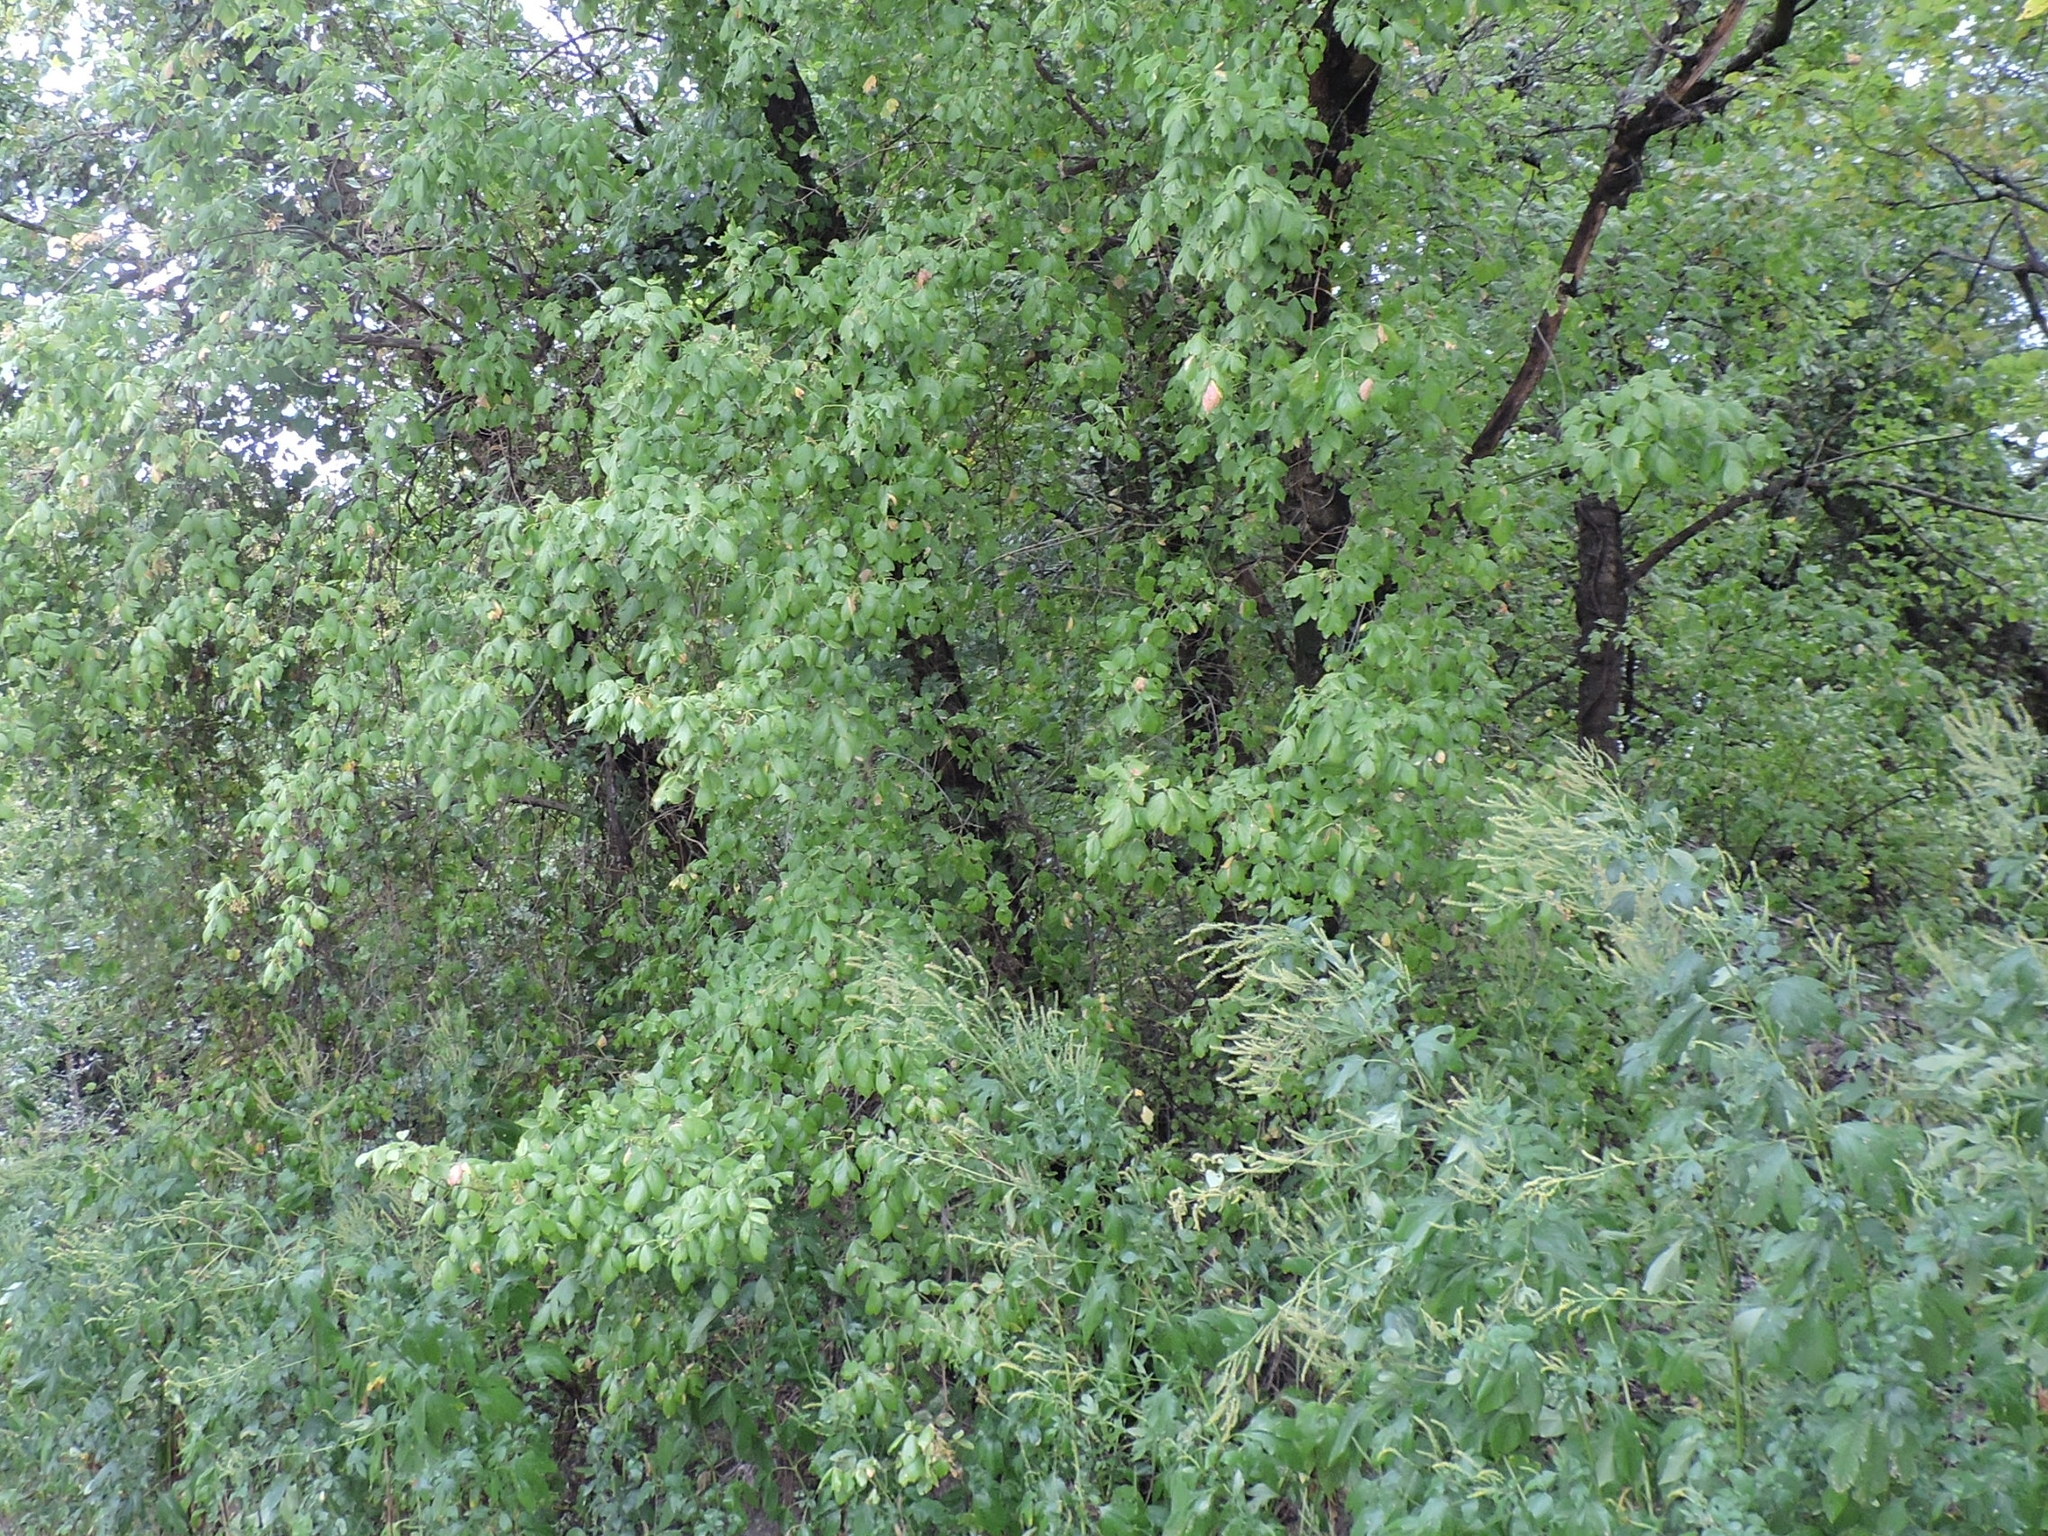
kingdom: Plantae
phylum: Tracheophyta
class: Magnoliopsida
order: Sapindales
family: Sapindaceae
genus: Acer
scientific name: Acer negundo
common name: Ashleaf maple
